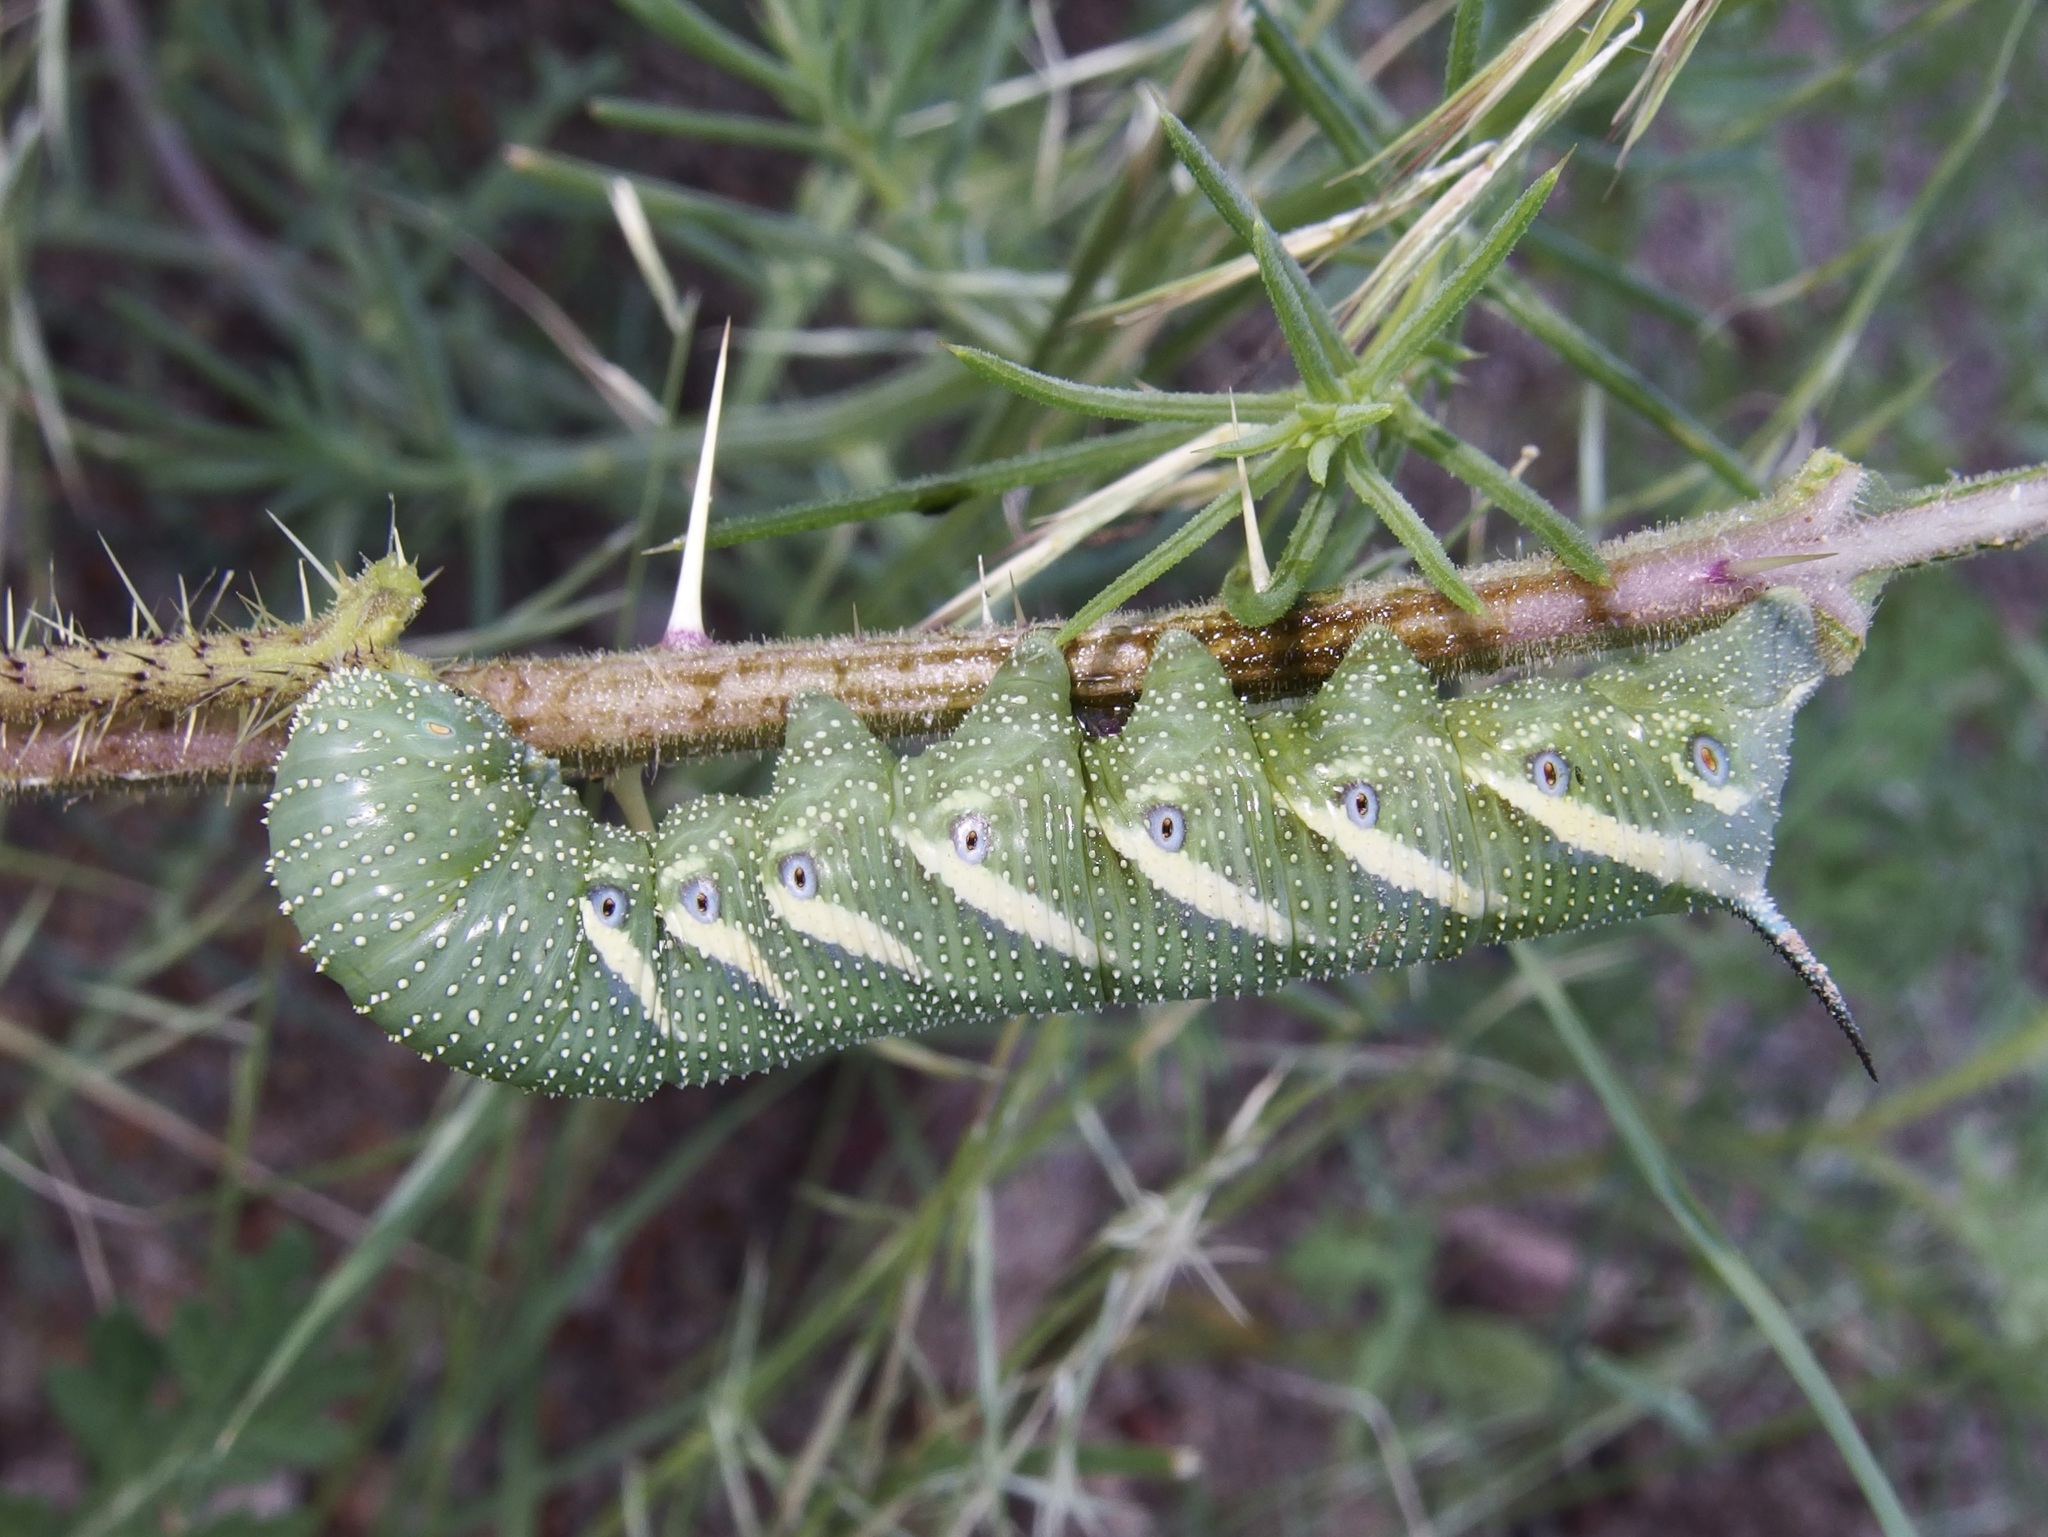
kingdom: Animalia
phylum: Arthropoda
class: Insecta
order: Lepidoptera
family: Sphingidae
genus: Manduca
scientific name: Manduca quinquemaculatus
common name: Five-spotted hawk-moth
